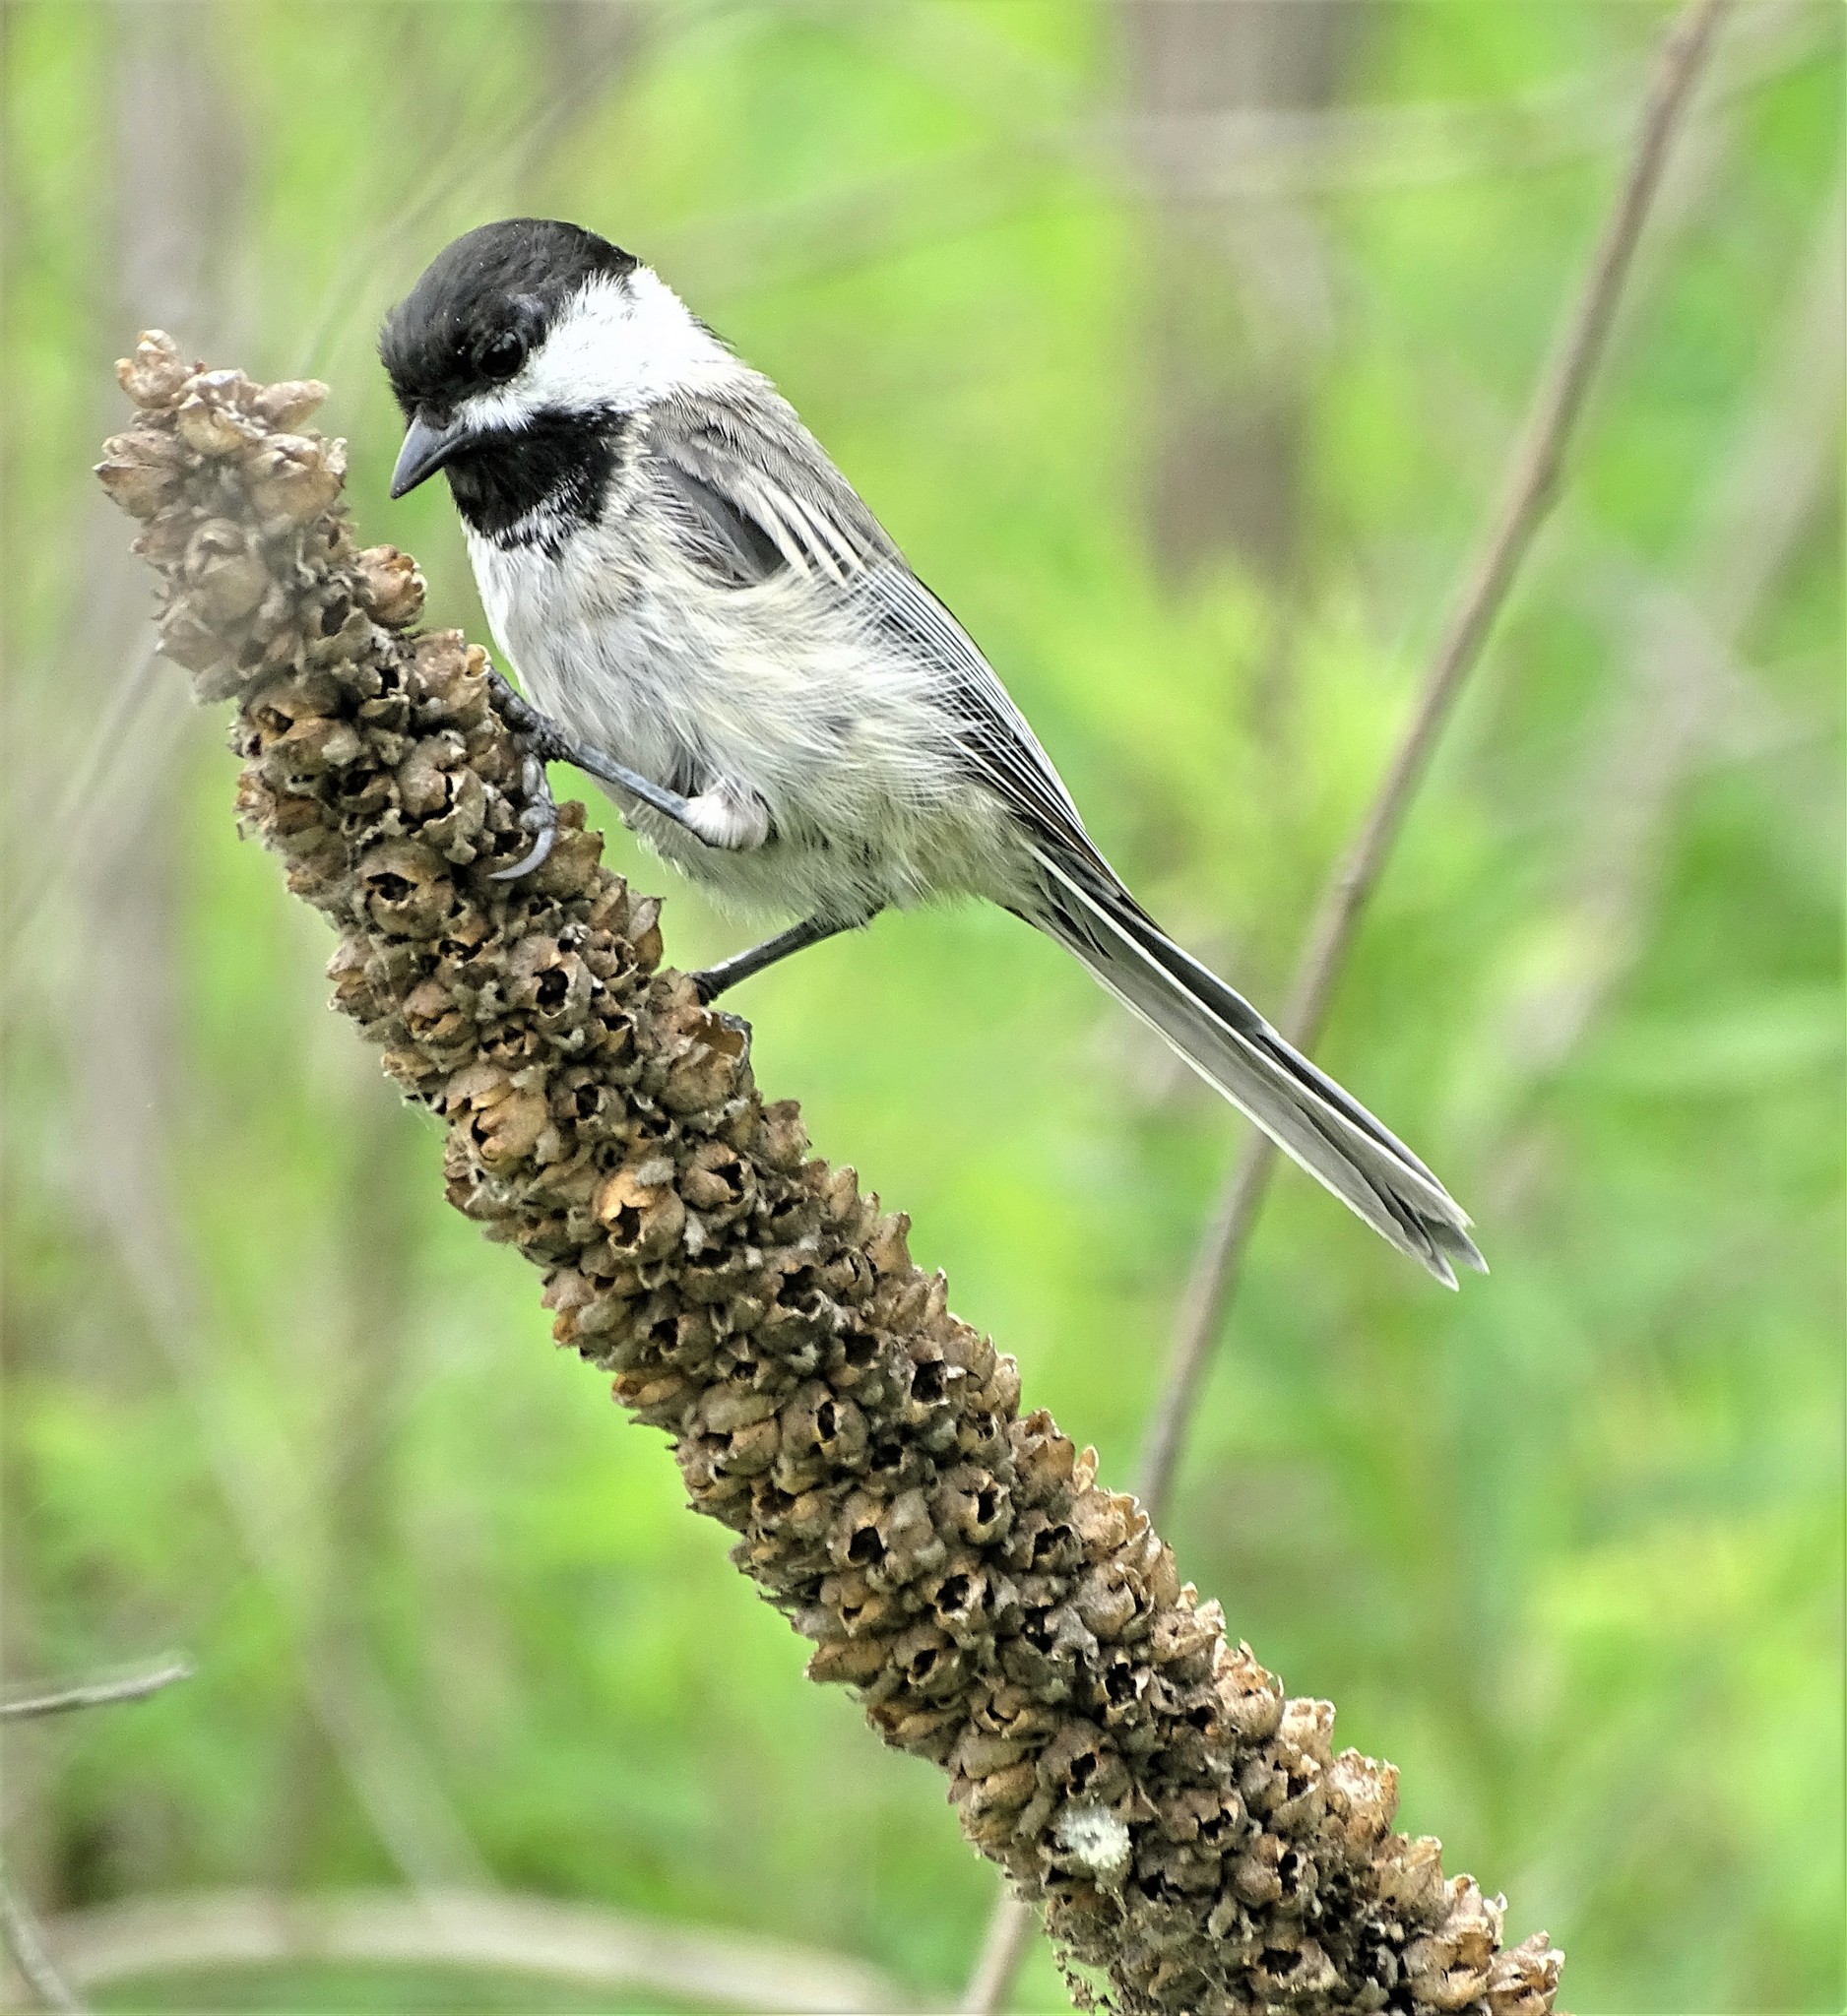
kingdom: Animalia
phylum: Chordata
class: Aves
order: Passeriformes
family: Paridae
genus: Poecile
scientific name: Poecile atricapillus
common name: Black-capped chickadee
